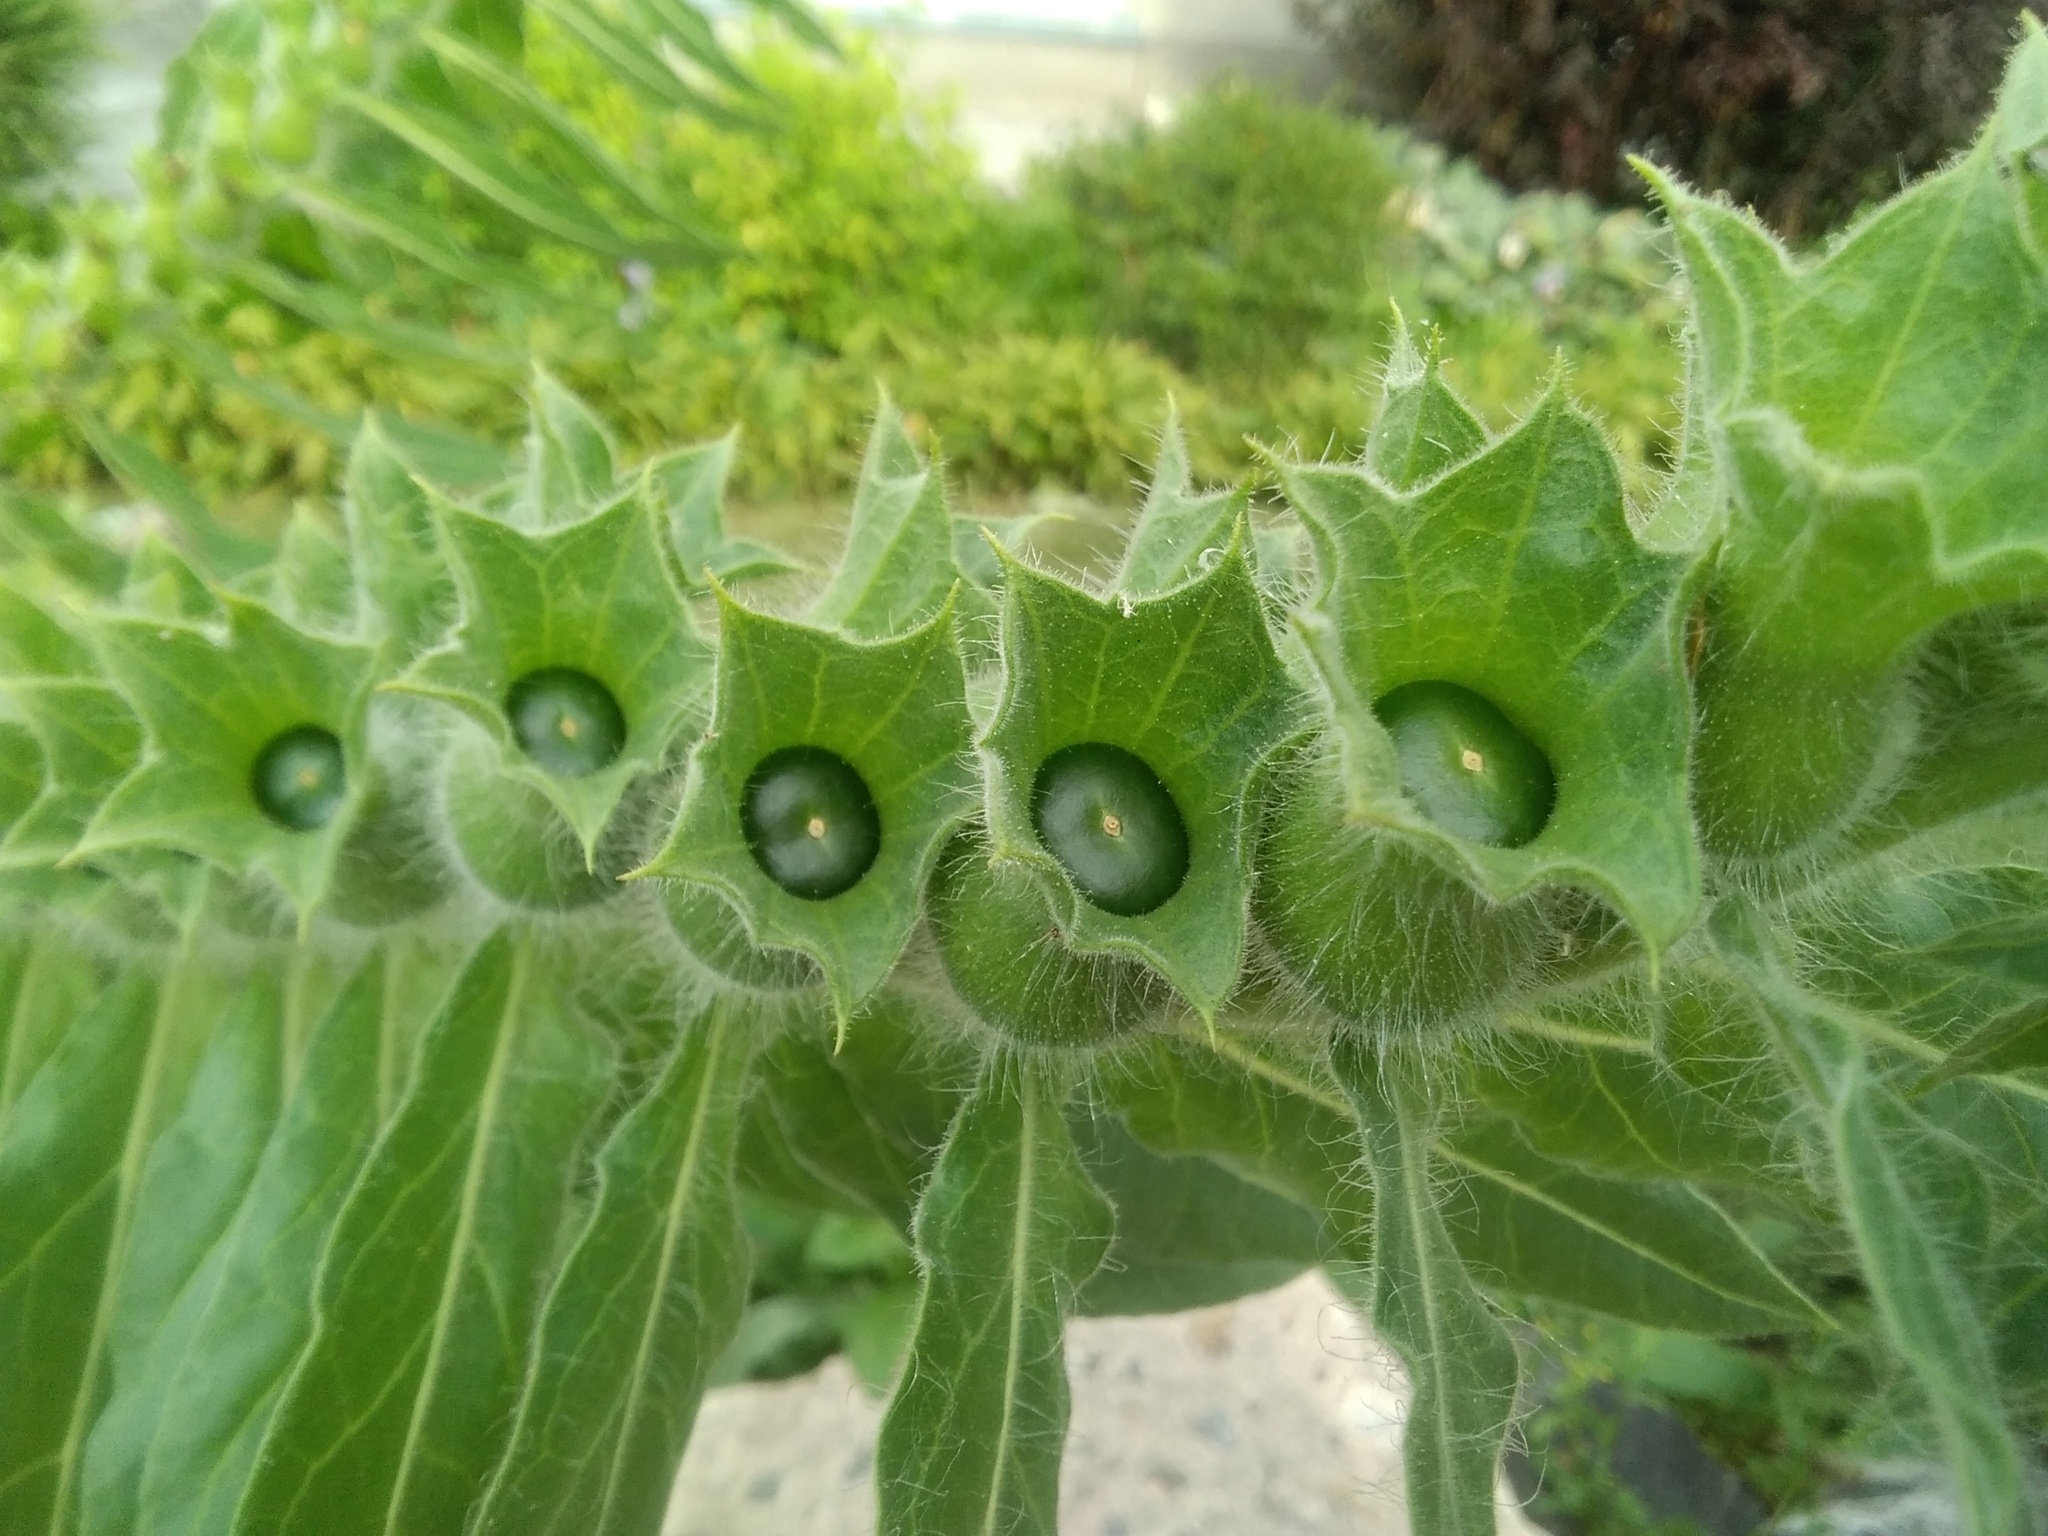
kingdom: Plantae
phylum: Tracheophyta
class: Magnoliopsida
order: Solanales
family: Solanaceae
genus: Hyoscyamus
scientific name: Hyoscyamus niger
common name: Henbane
